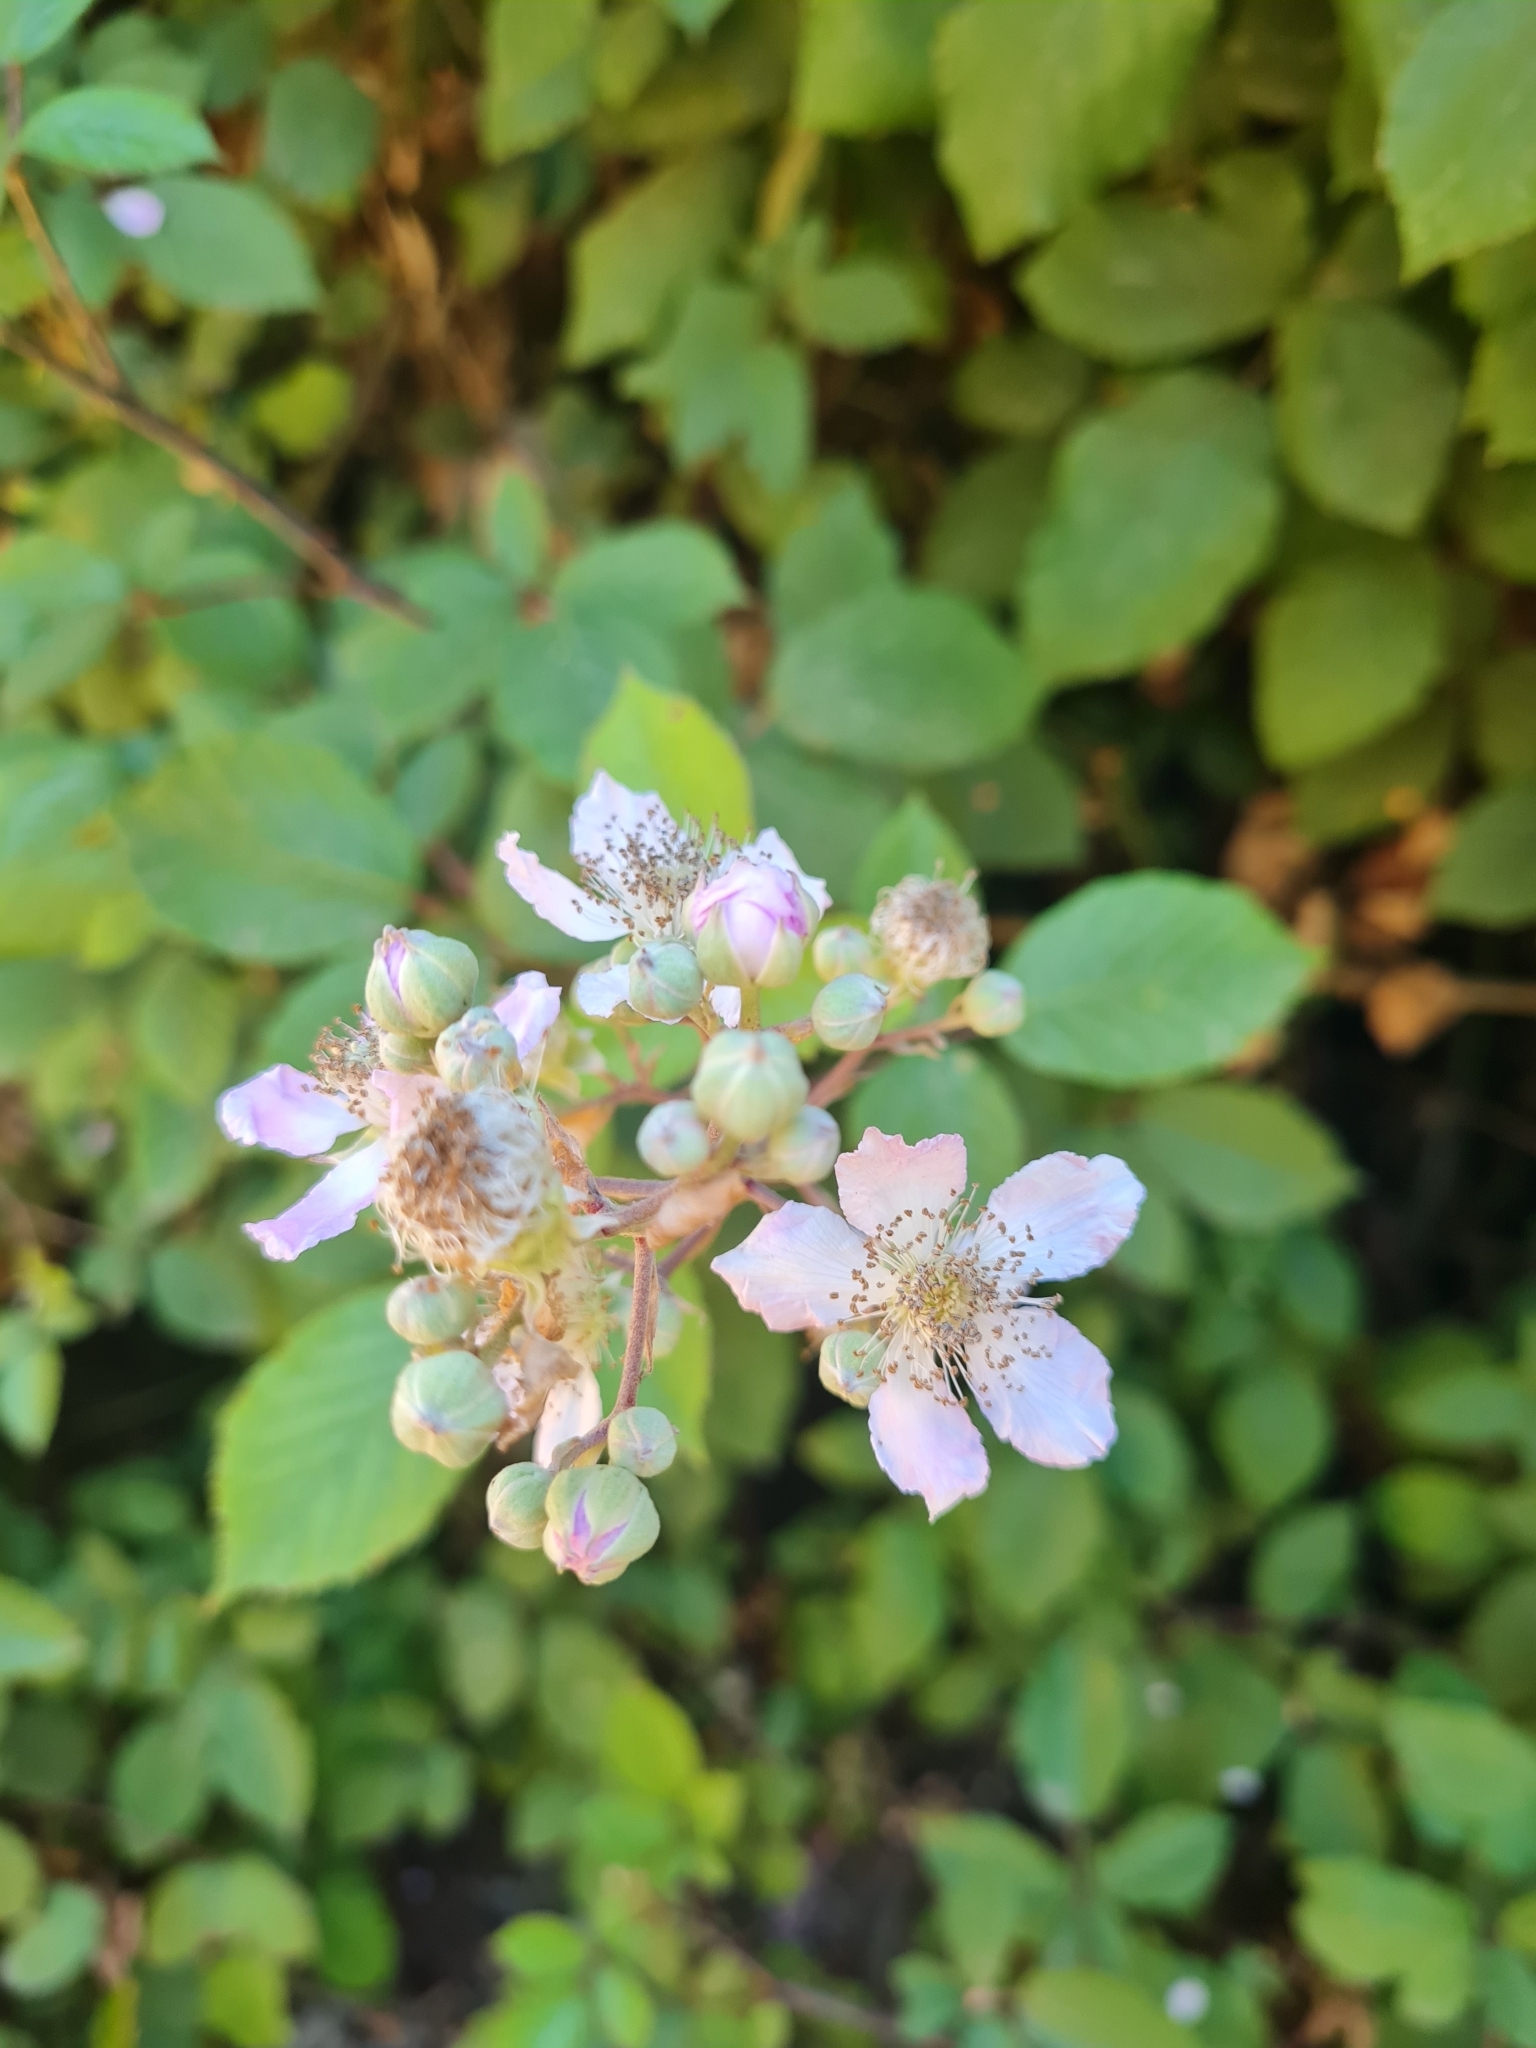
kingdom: Plantae
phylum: Tracheophyta
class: Magnoliopsida
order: Rosales
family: Rosaceae
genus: Rubus
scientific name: Rubus ulmifolius
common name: Elmleaf blackberry
